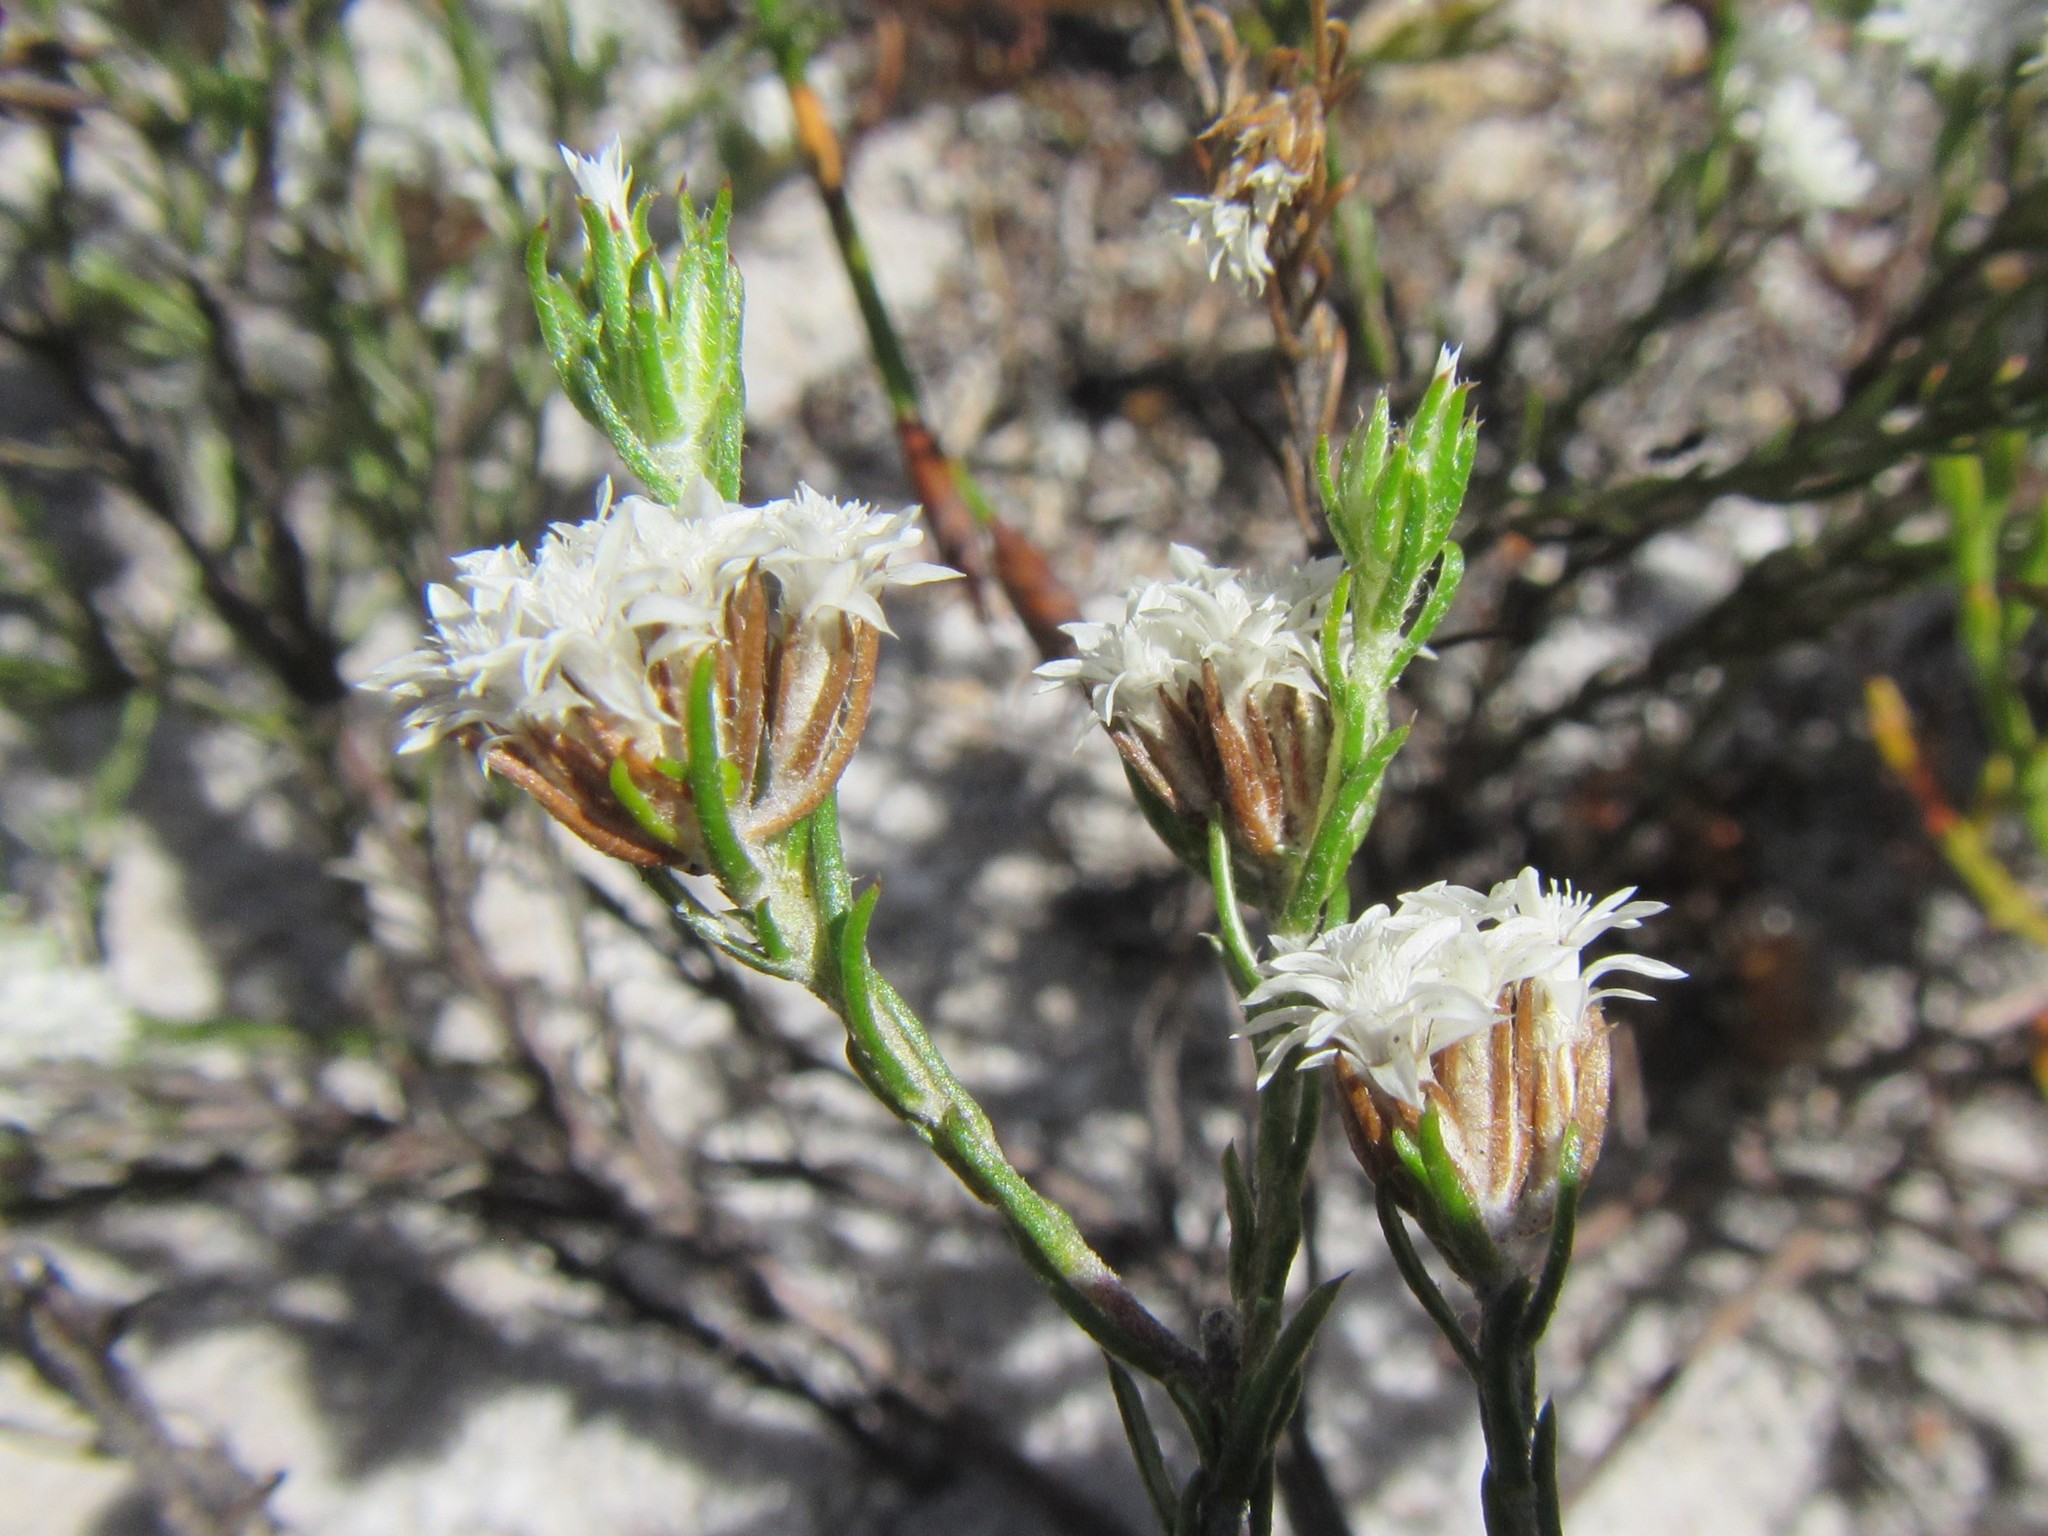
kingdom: Plantae
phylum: Tracheophyta
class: Magnoliopsida
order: Asterales
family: Asteraceae
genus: Metalasia
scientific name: Metalasia quinqueflora
